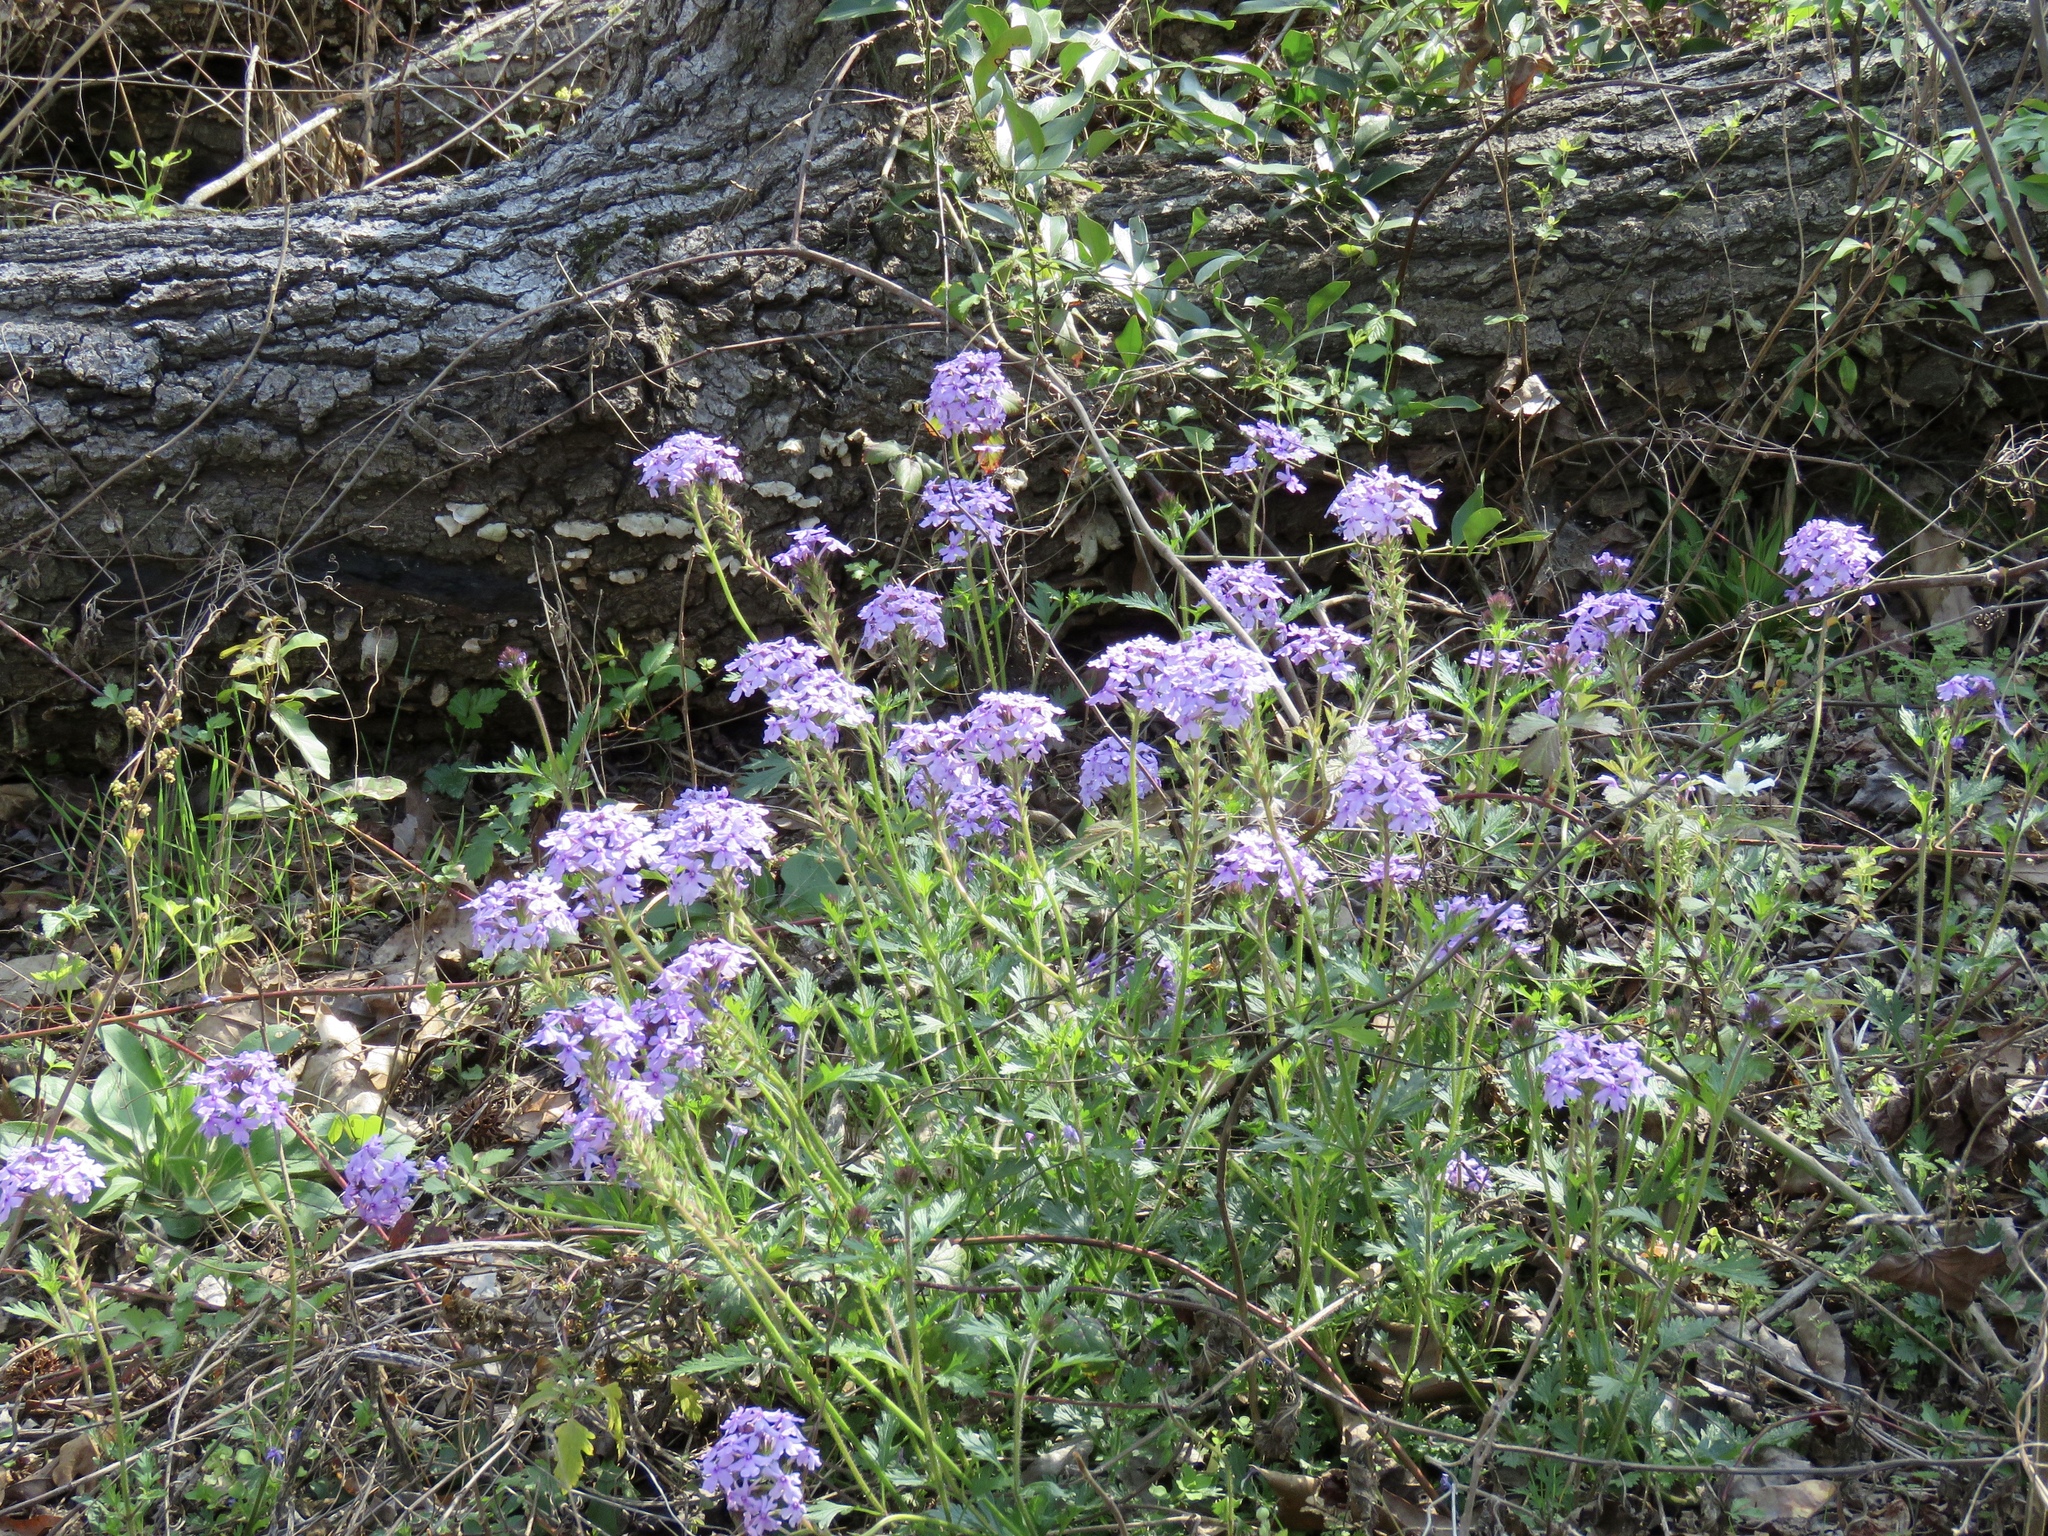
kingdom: Plantae
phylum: Tracheophyta
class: Magnoliopsida
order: Lamiales
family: Verbenaceae
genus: Verbena
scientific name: Verbena canadensis
